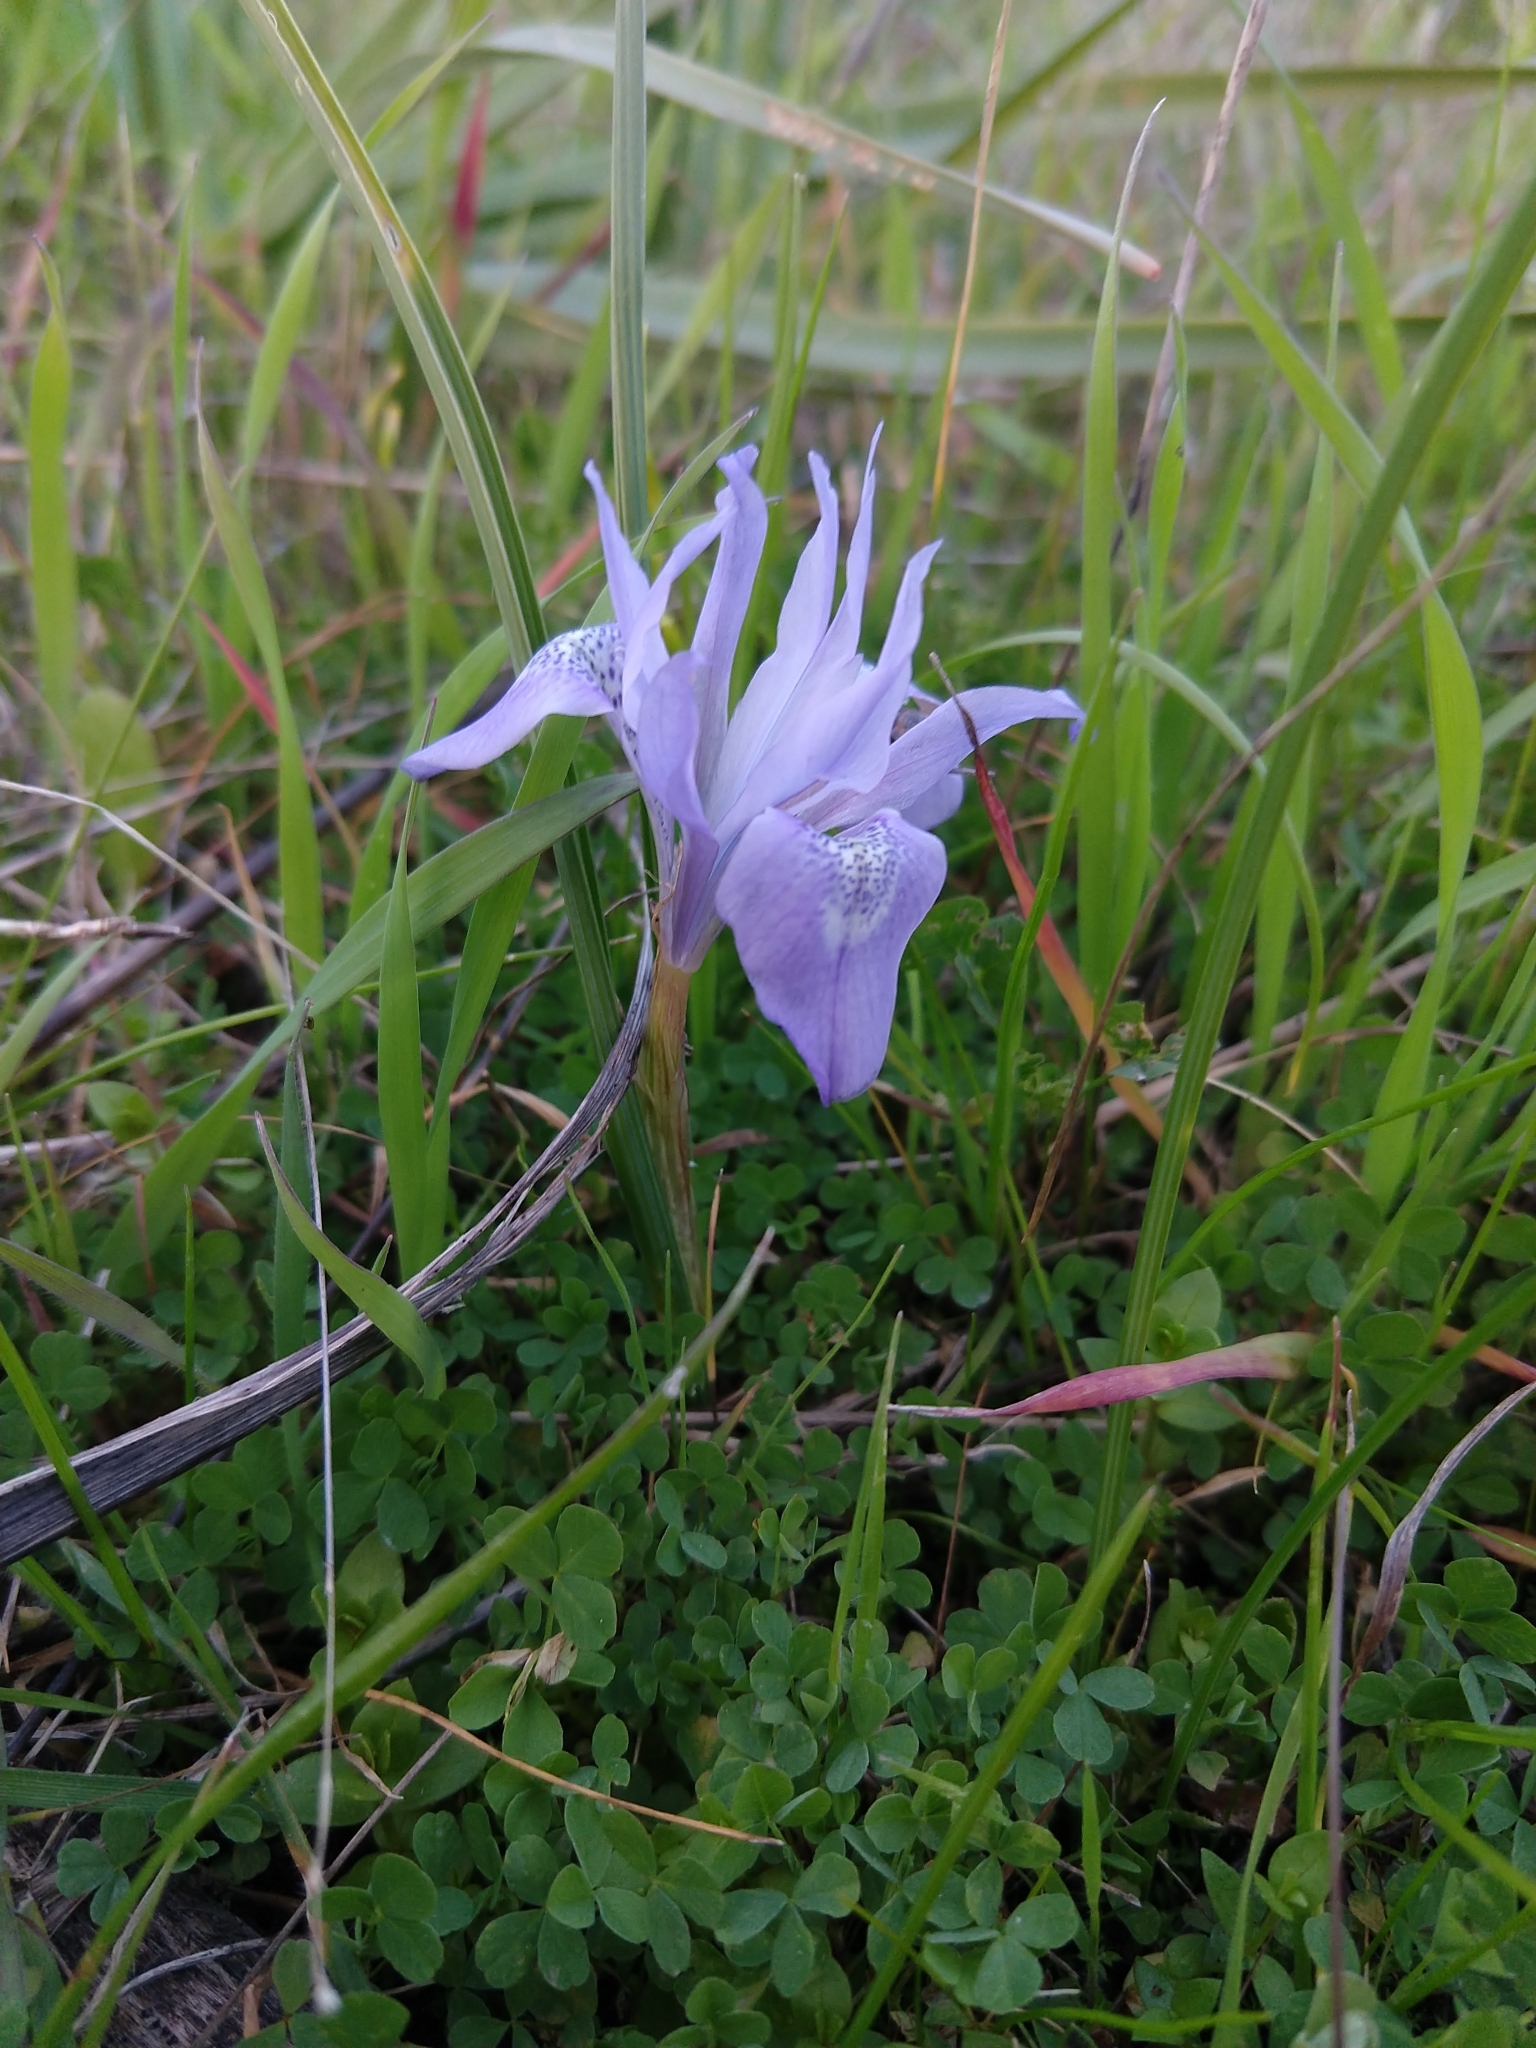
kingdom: Plantae
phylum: Tracheophyta
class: Liliopsida
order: Asparagales
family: Iridaceae
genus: Moraea
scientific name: Moraea sisyrinchium
